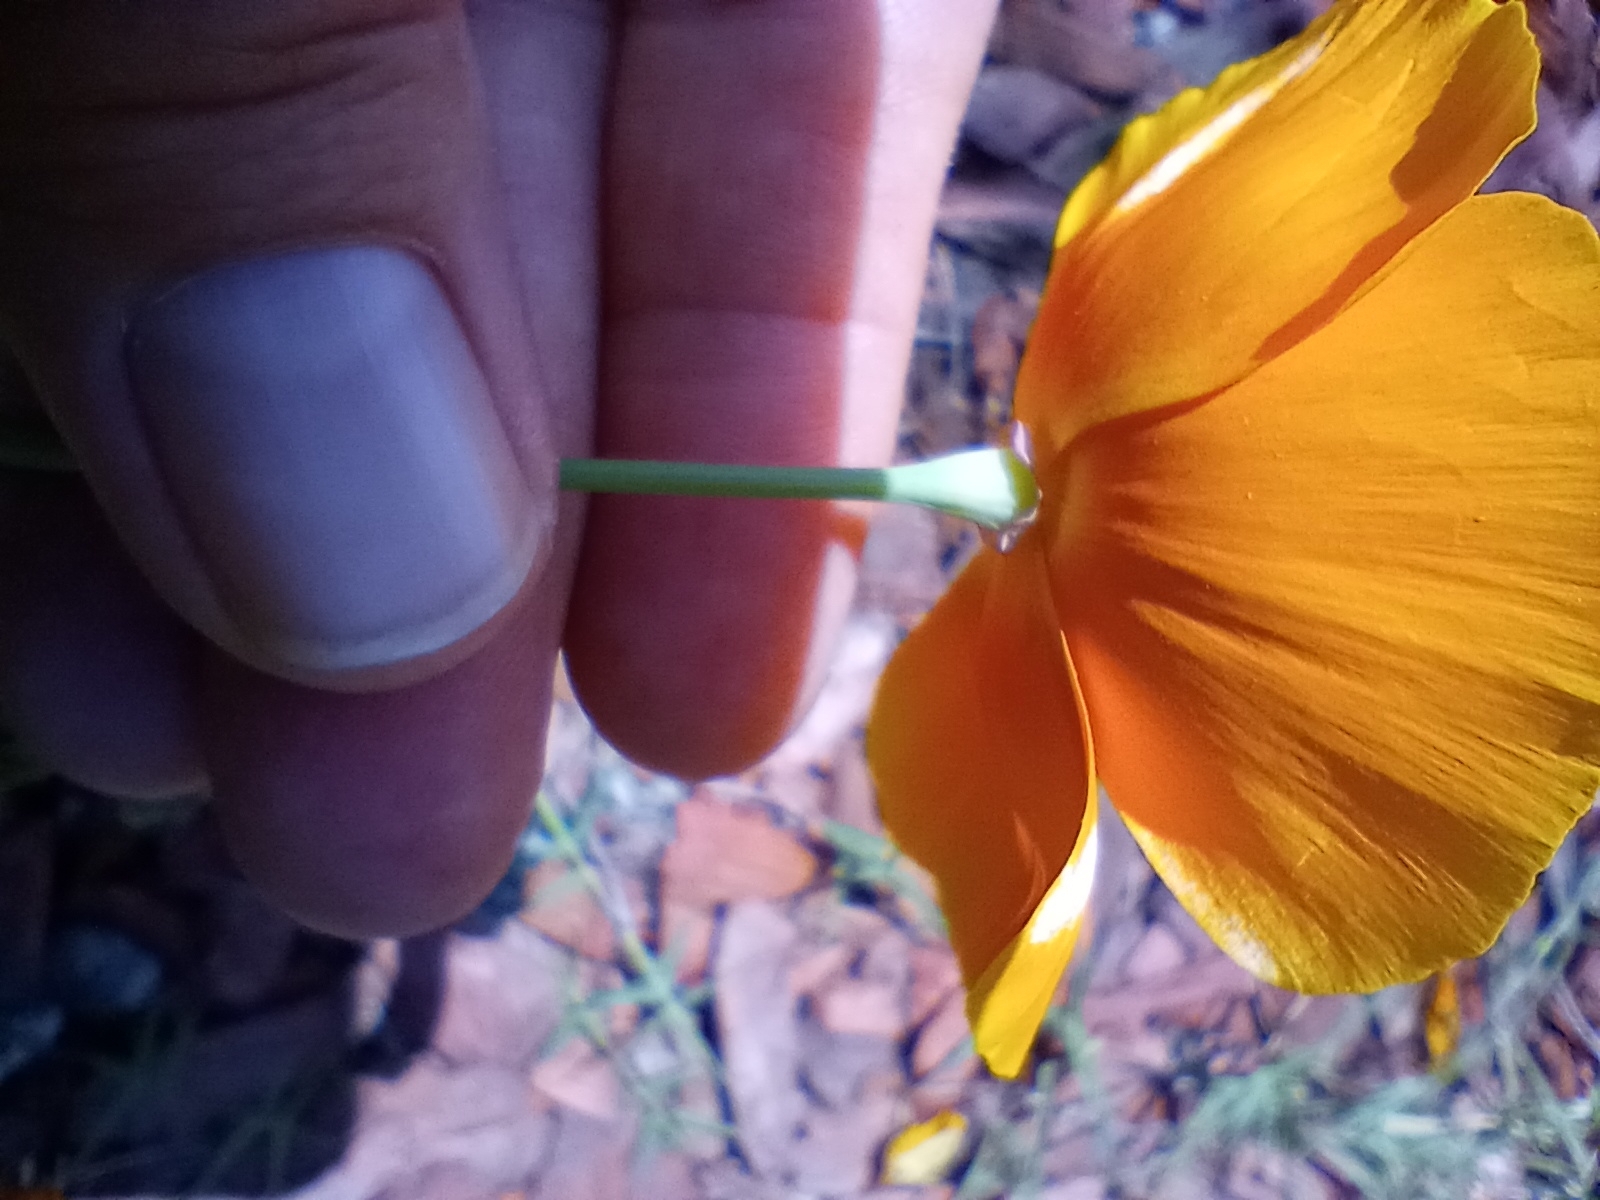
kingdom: Plantae
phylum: Tracheophyta
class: Magnoliopsida
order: Ranunculales
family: Papaveraceae
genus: Eschscholzia
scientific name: Eschscholzia californica
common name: California poppy
